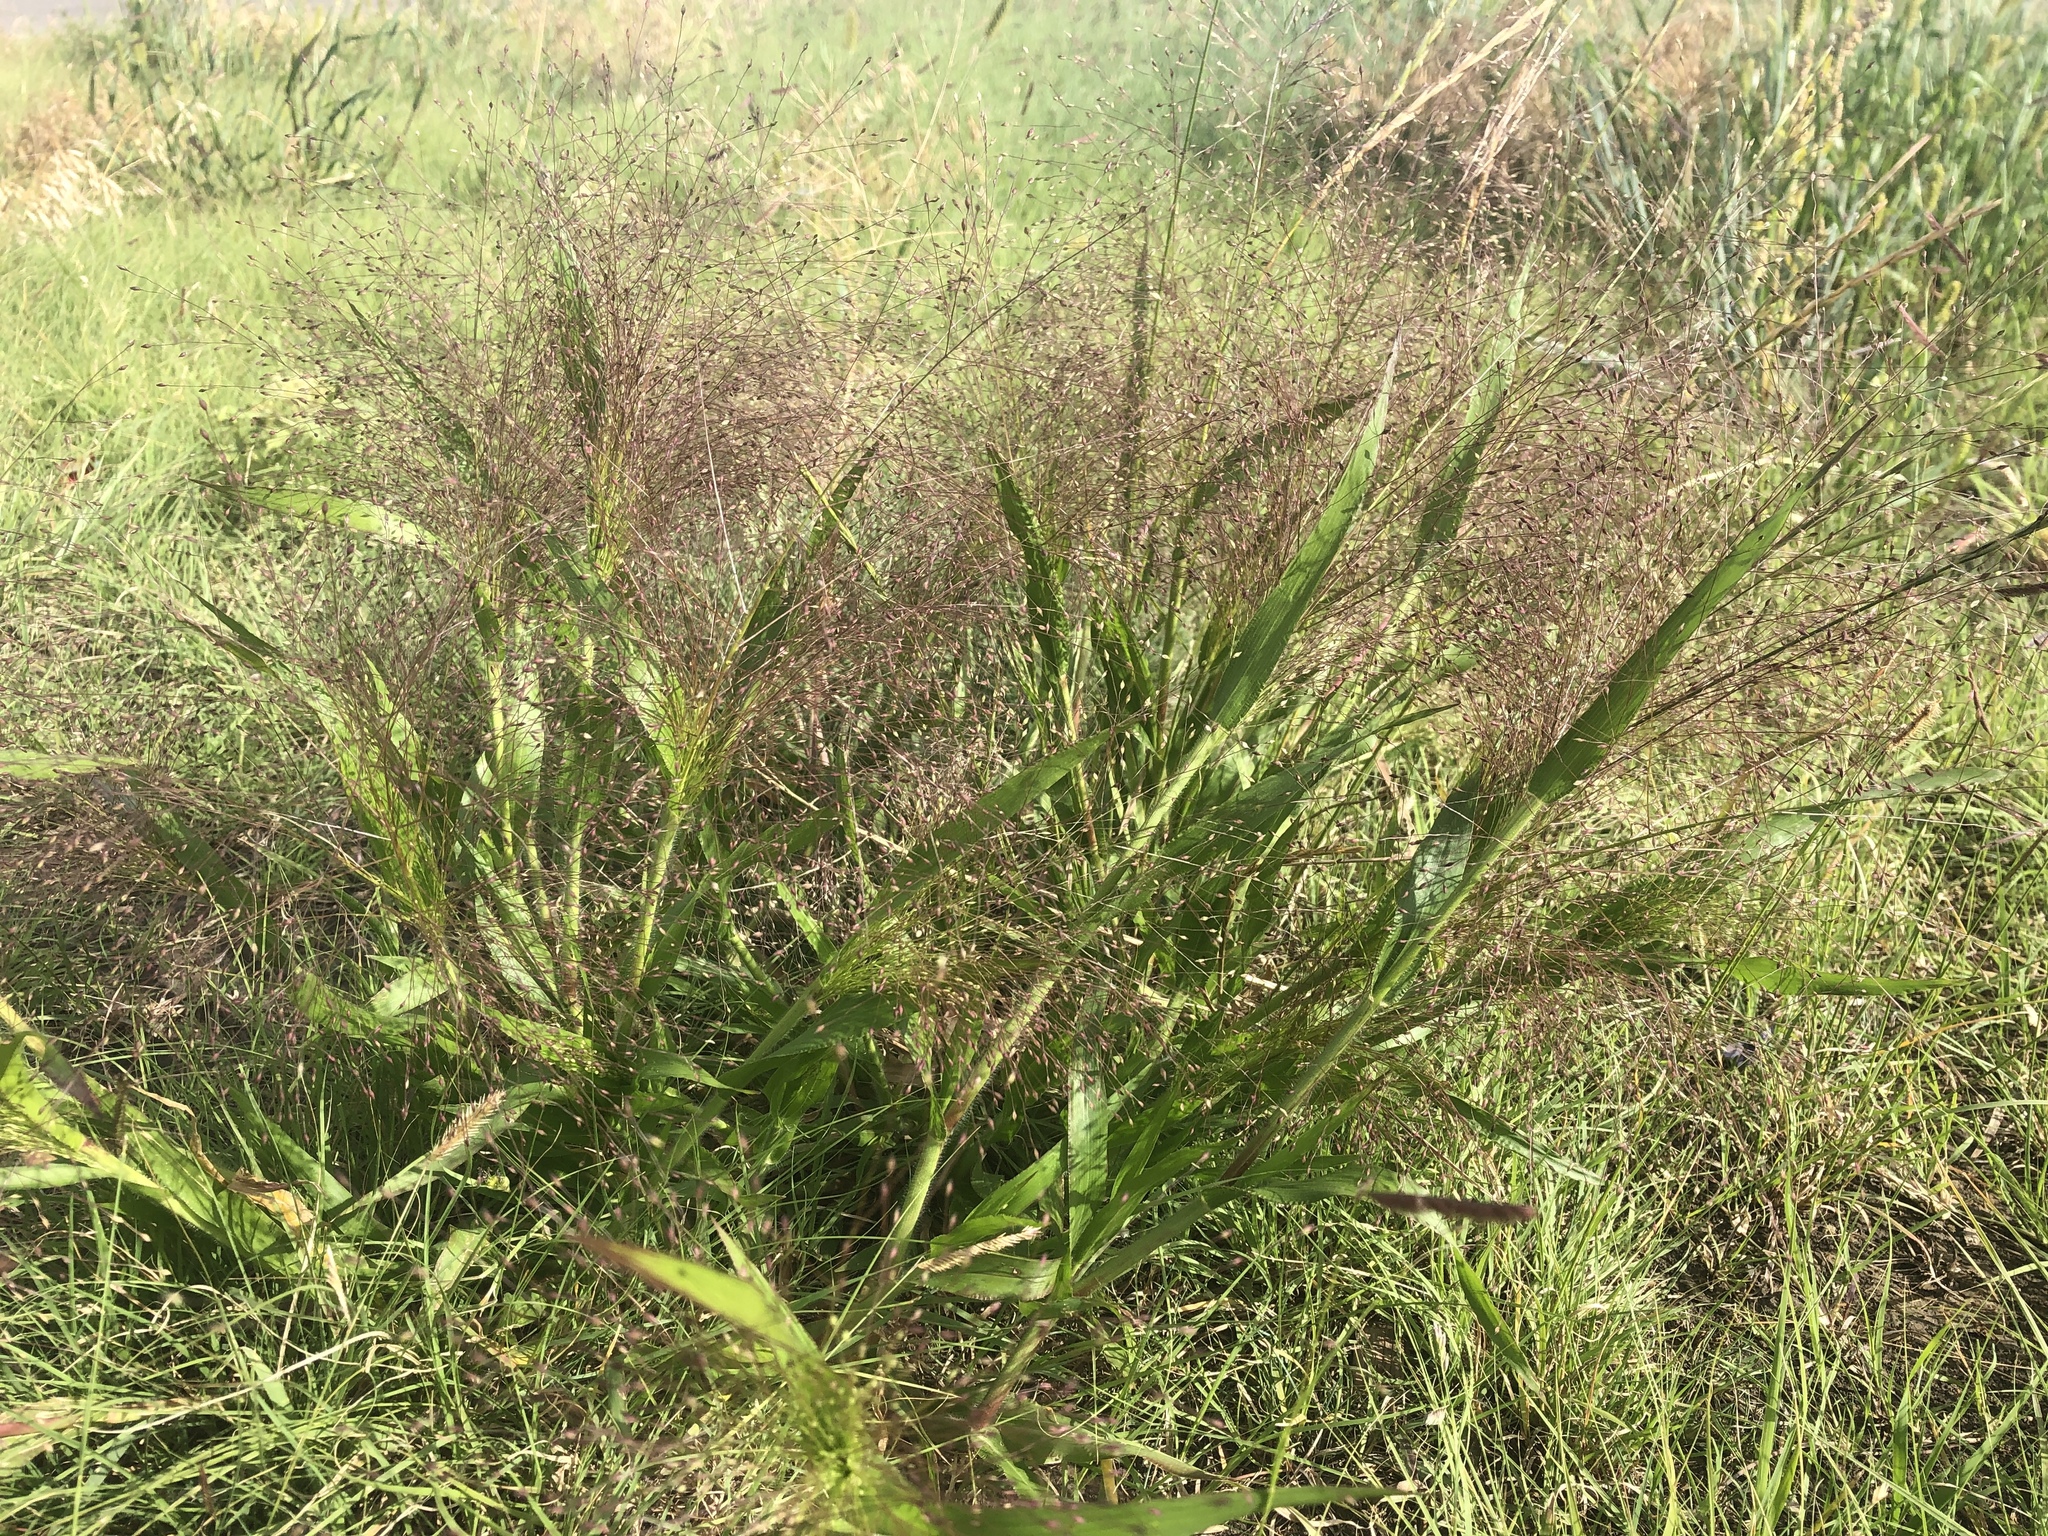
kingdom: Plantae
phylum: Tracheophyta
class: Liliopsida
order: Poales
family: Poaceae
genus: Panicum
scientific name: Panicum capillare
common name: Witch-grass
